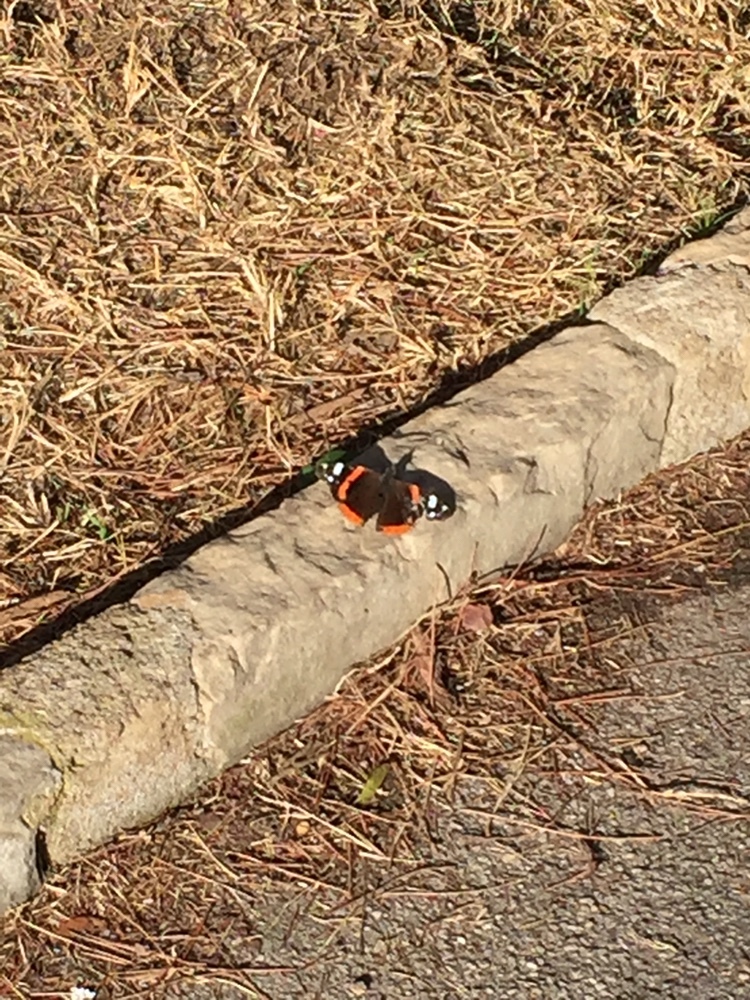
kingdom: Animalia
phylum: Arthropoda
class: Insecta
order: Lepidoptera
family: Nymphalidae
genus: Vanessa
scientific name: Vanessa atalanta
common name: Red admiral
